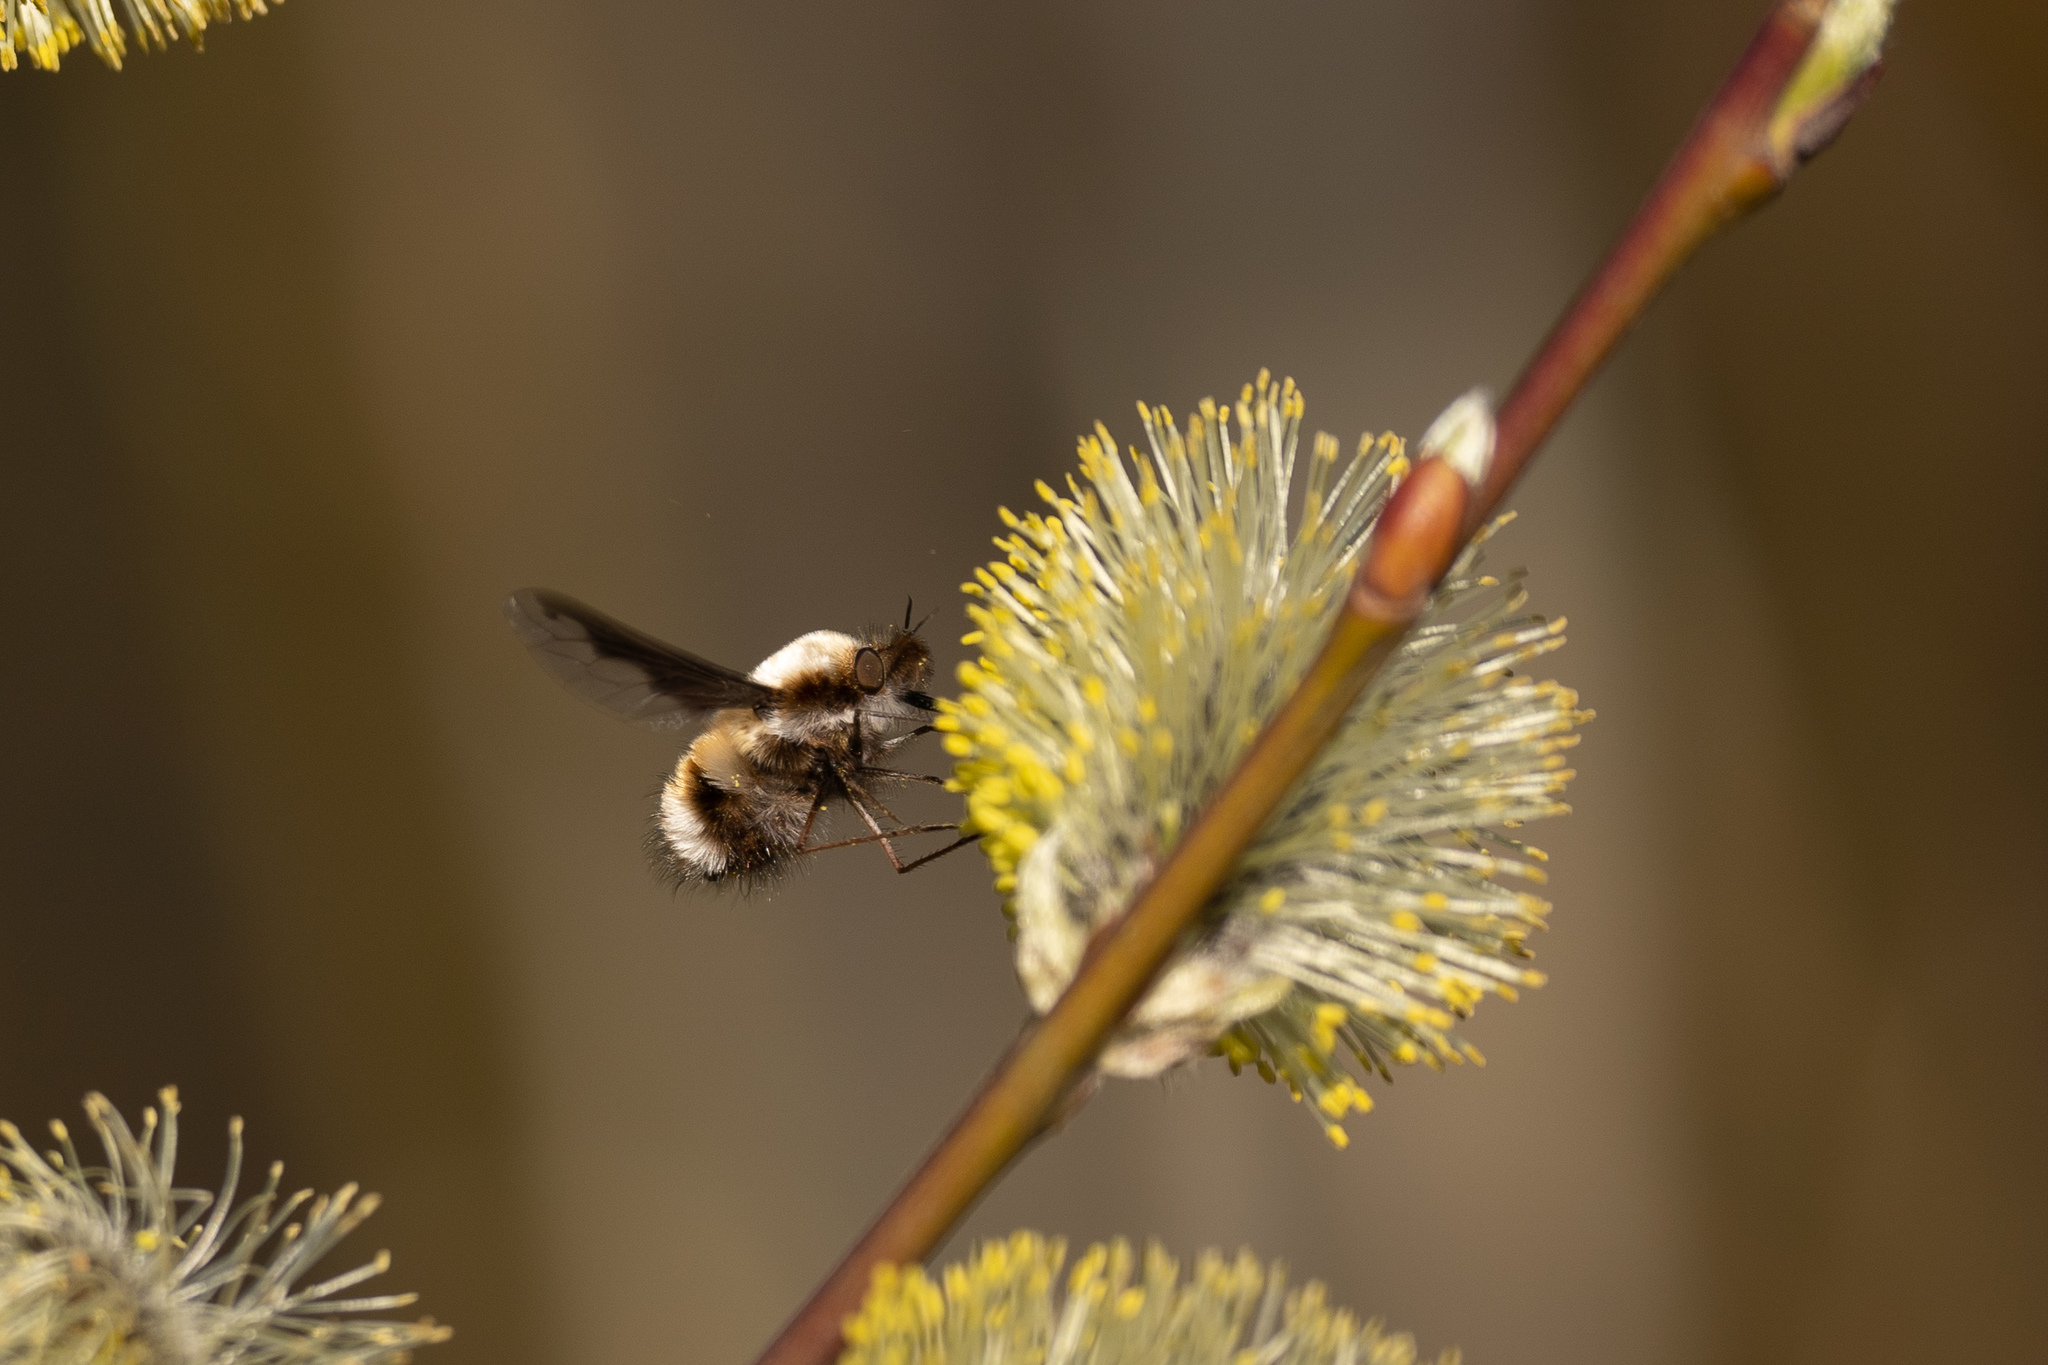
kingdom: Animalia
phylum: Arthropoda
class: Insecta
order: Diptera
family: Bombyliidae
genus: Bombylius
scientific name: Bombylius major
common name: Bee fly
